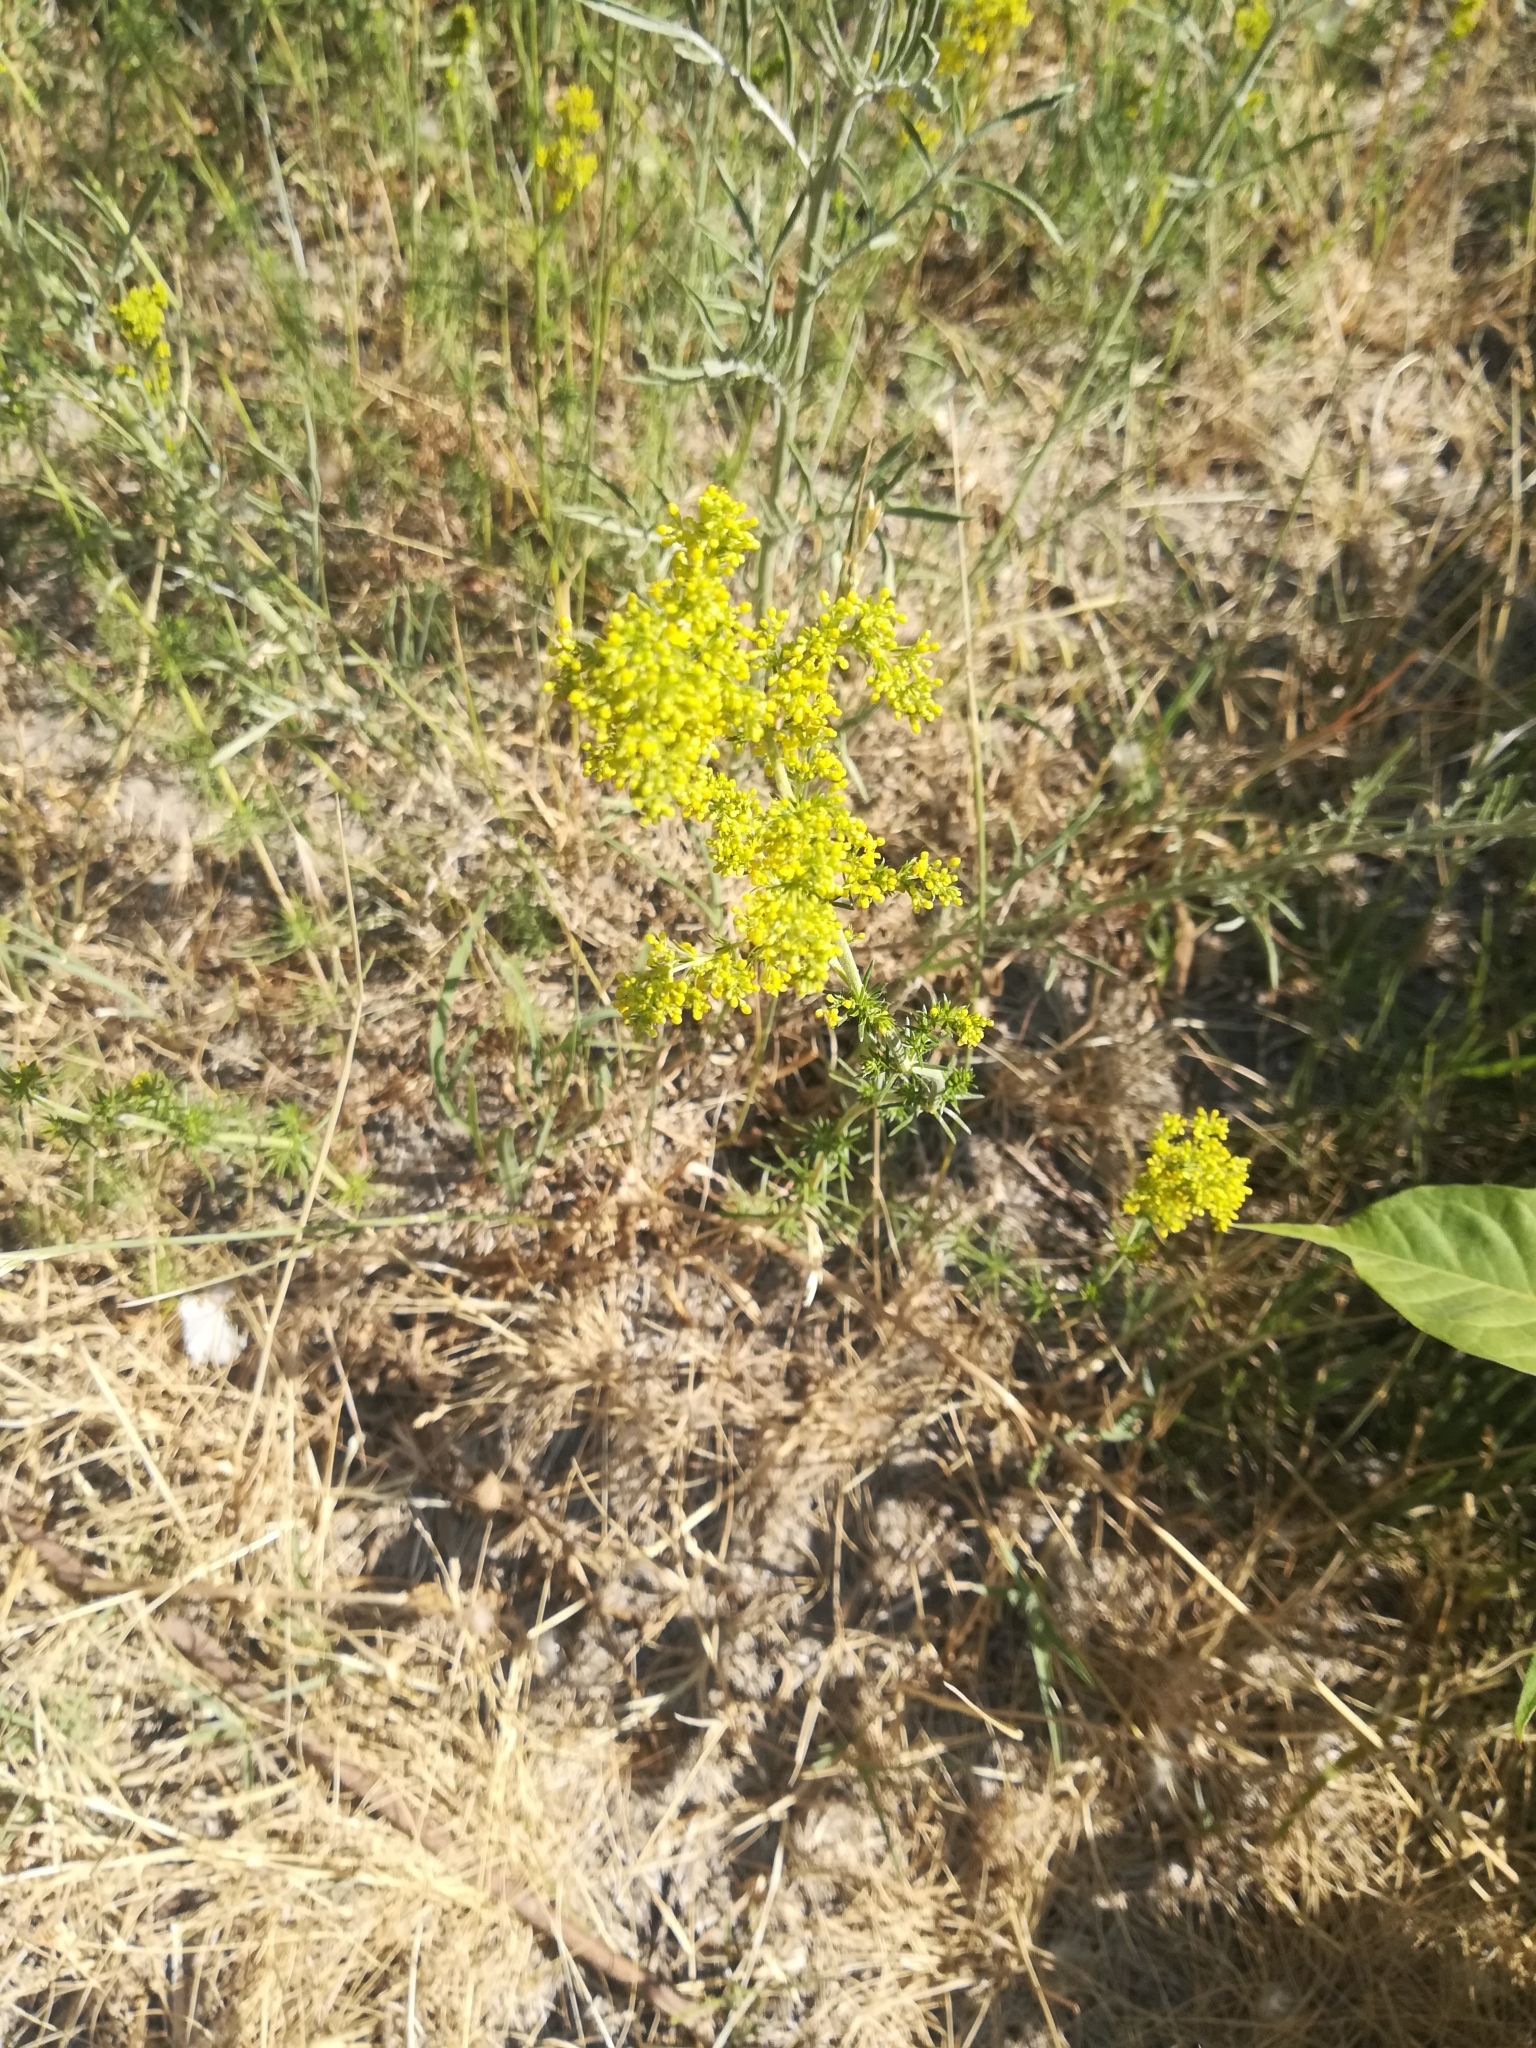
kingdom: Plantae
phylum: Tracheophyta
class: Magnoliopsida
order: Gentianales
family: Rubiaceae
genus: Galium
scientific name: Galium verum
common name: Lady's bedstraw
